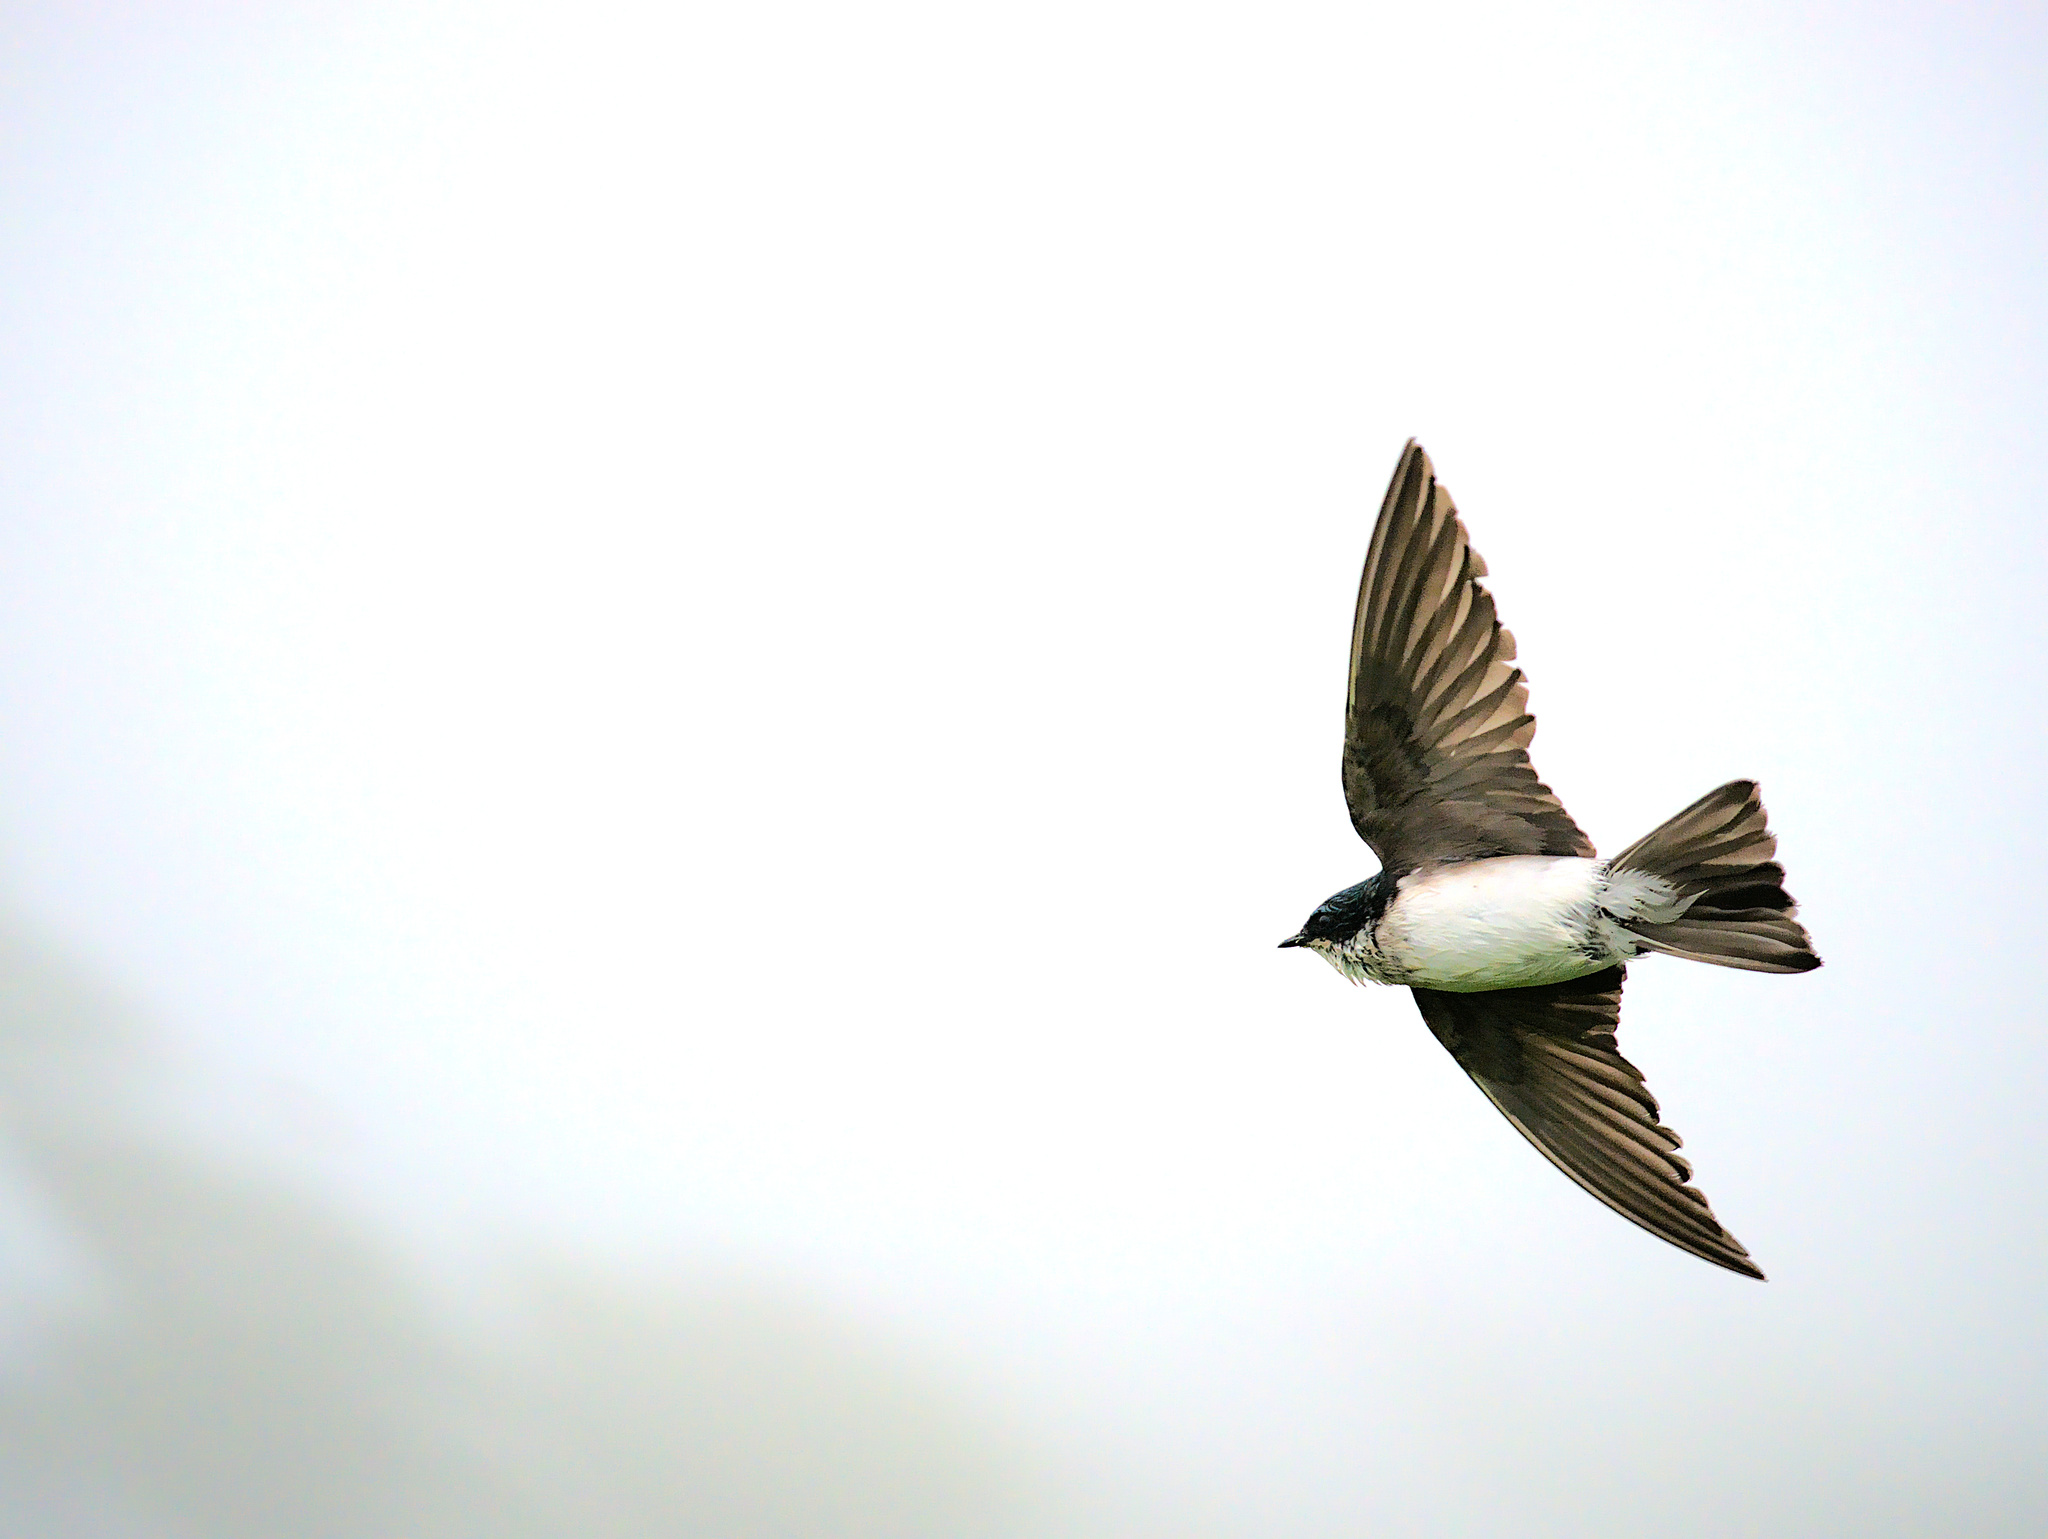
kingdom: Animalia
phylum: Chordata
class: Aves
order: Passeriformes
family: Hirundinidae
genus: Tachycineta
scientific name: Tachycineta bicolor
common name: Tree swallow
